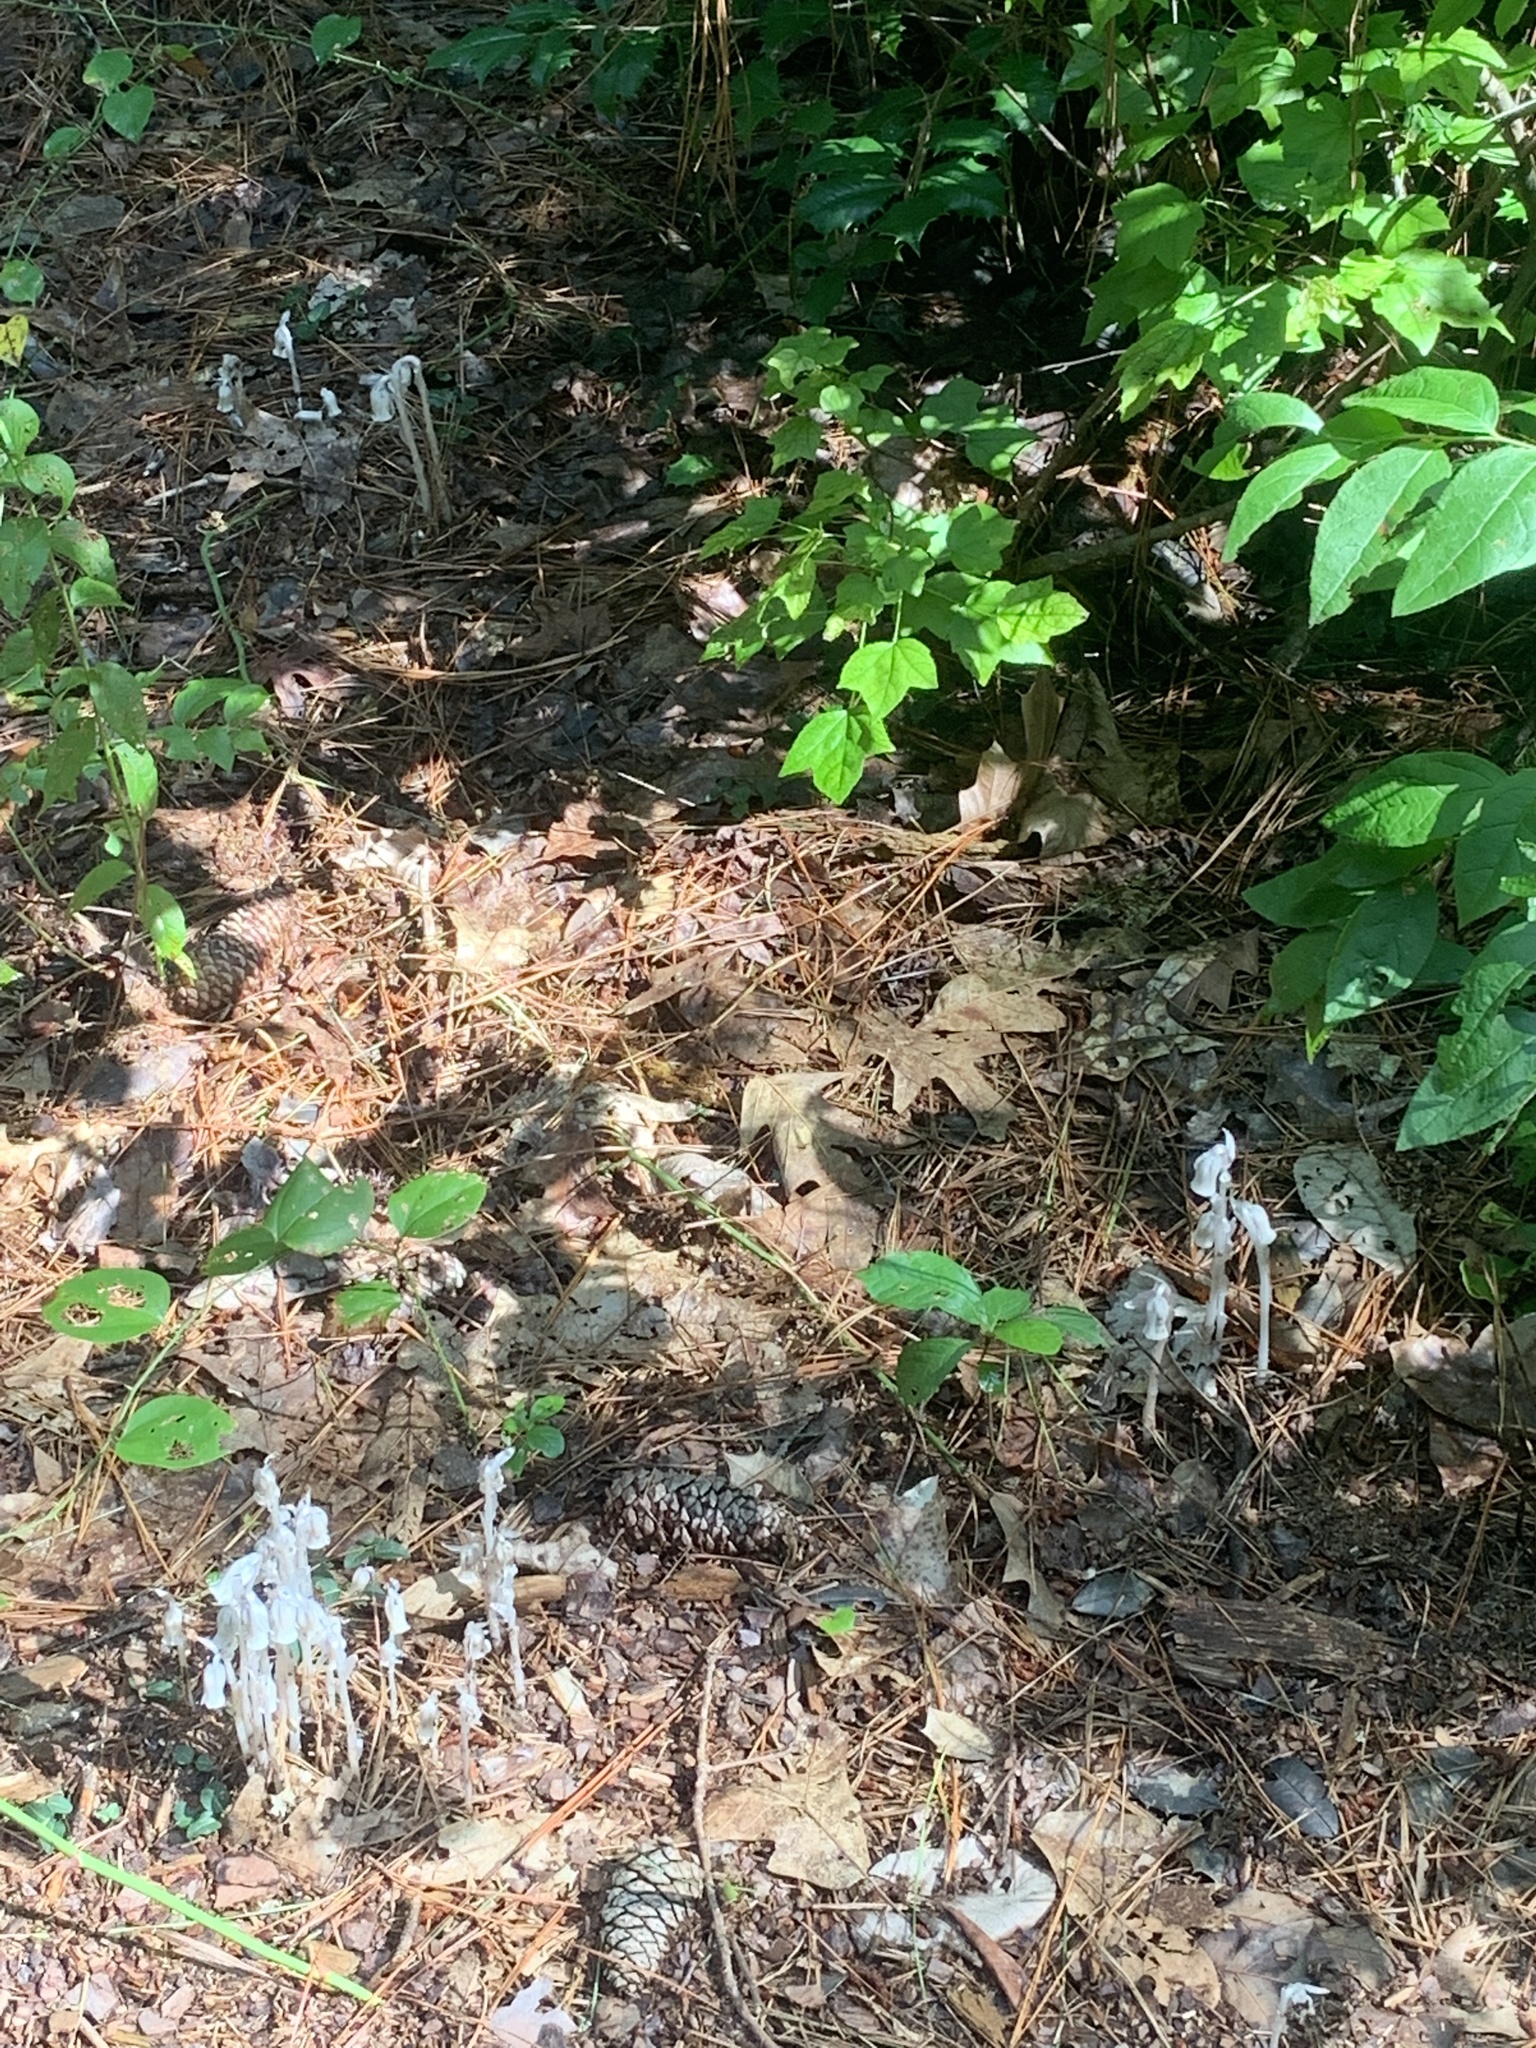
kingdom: Plantae
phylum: Tracheophyta
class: Magnoliopsida
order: Ericales
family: Ericaceae
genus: Monotropa
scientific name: Monotropa uniflora
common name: Convulsion root
